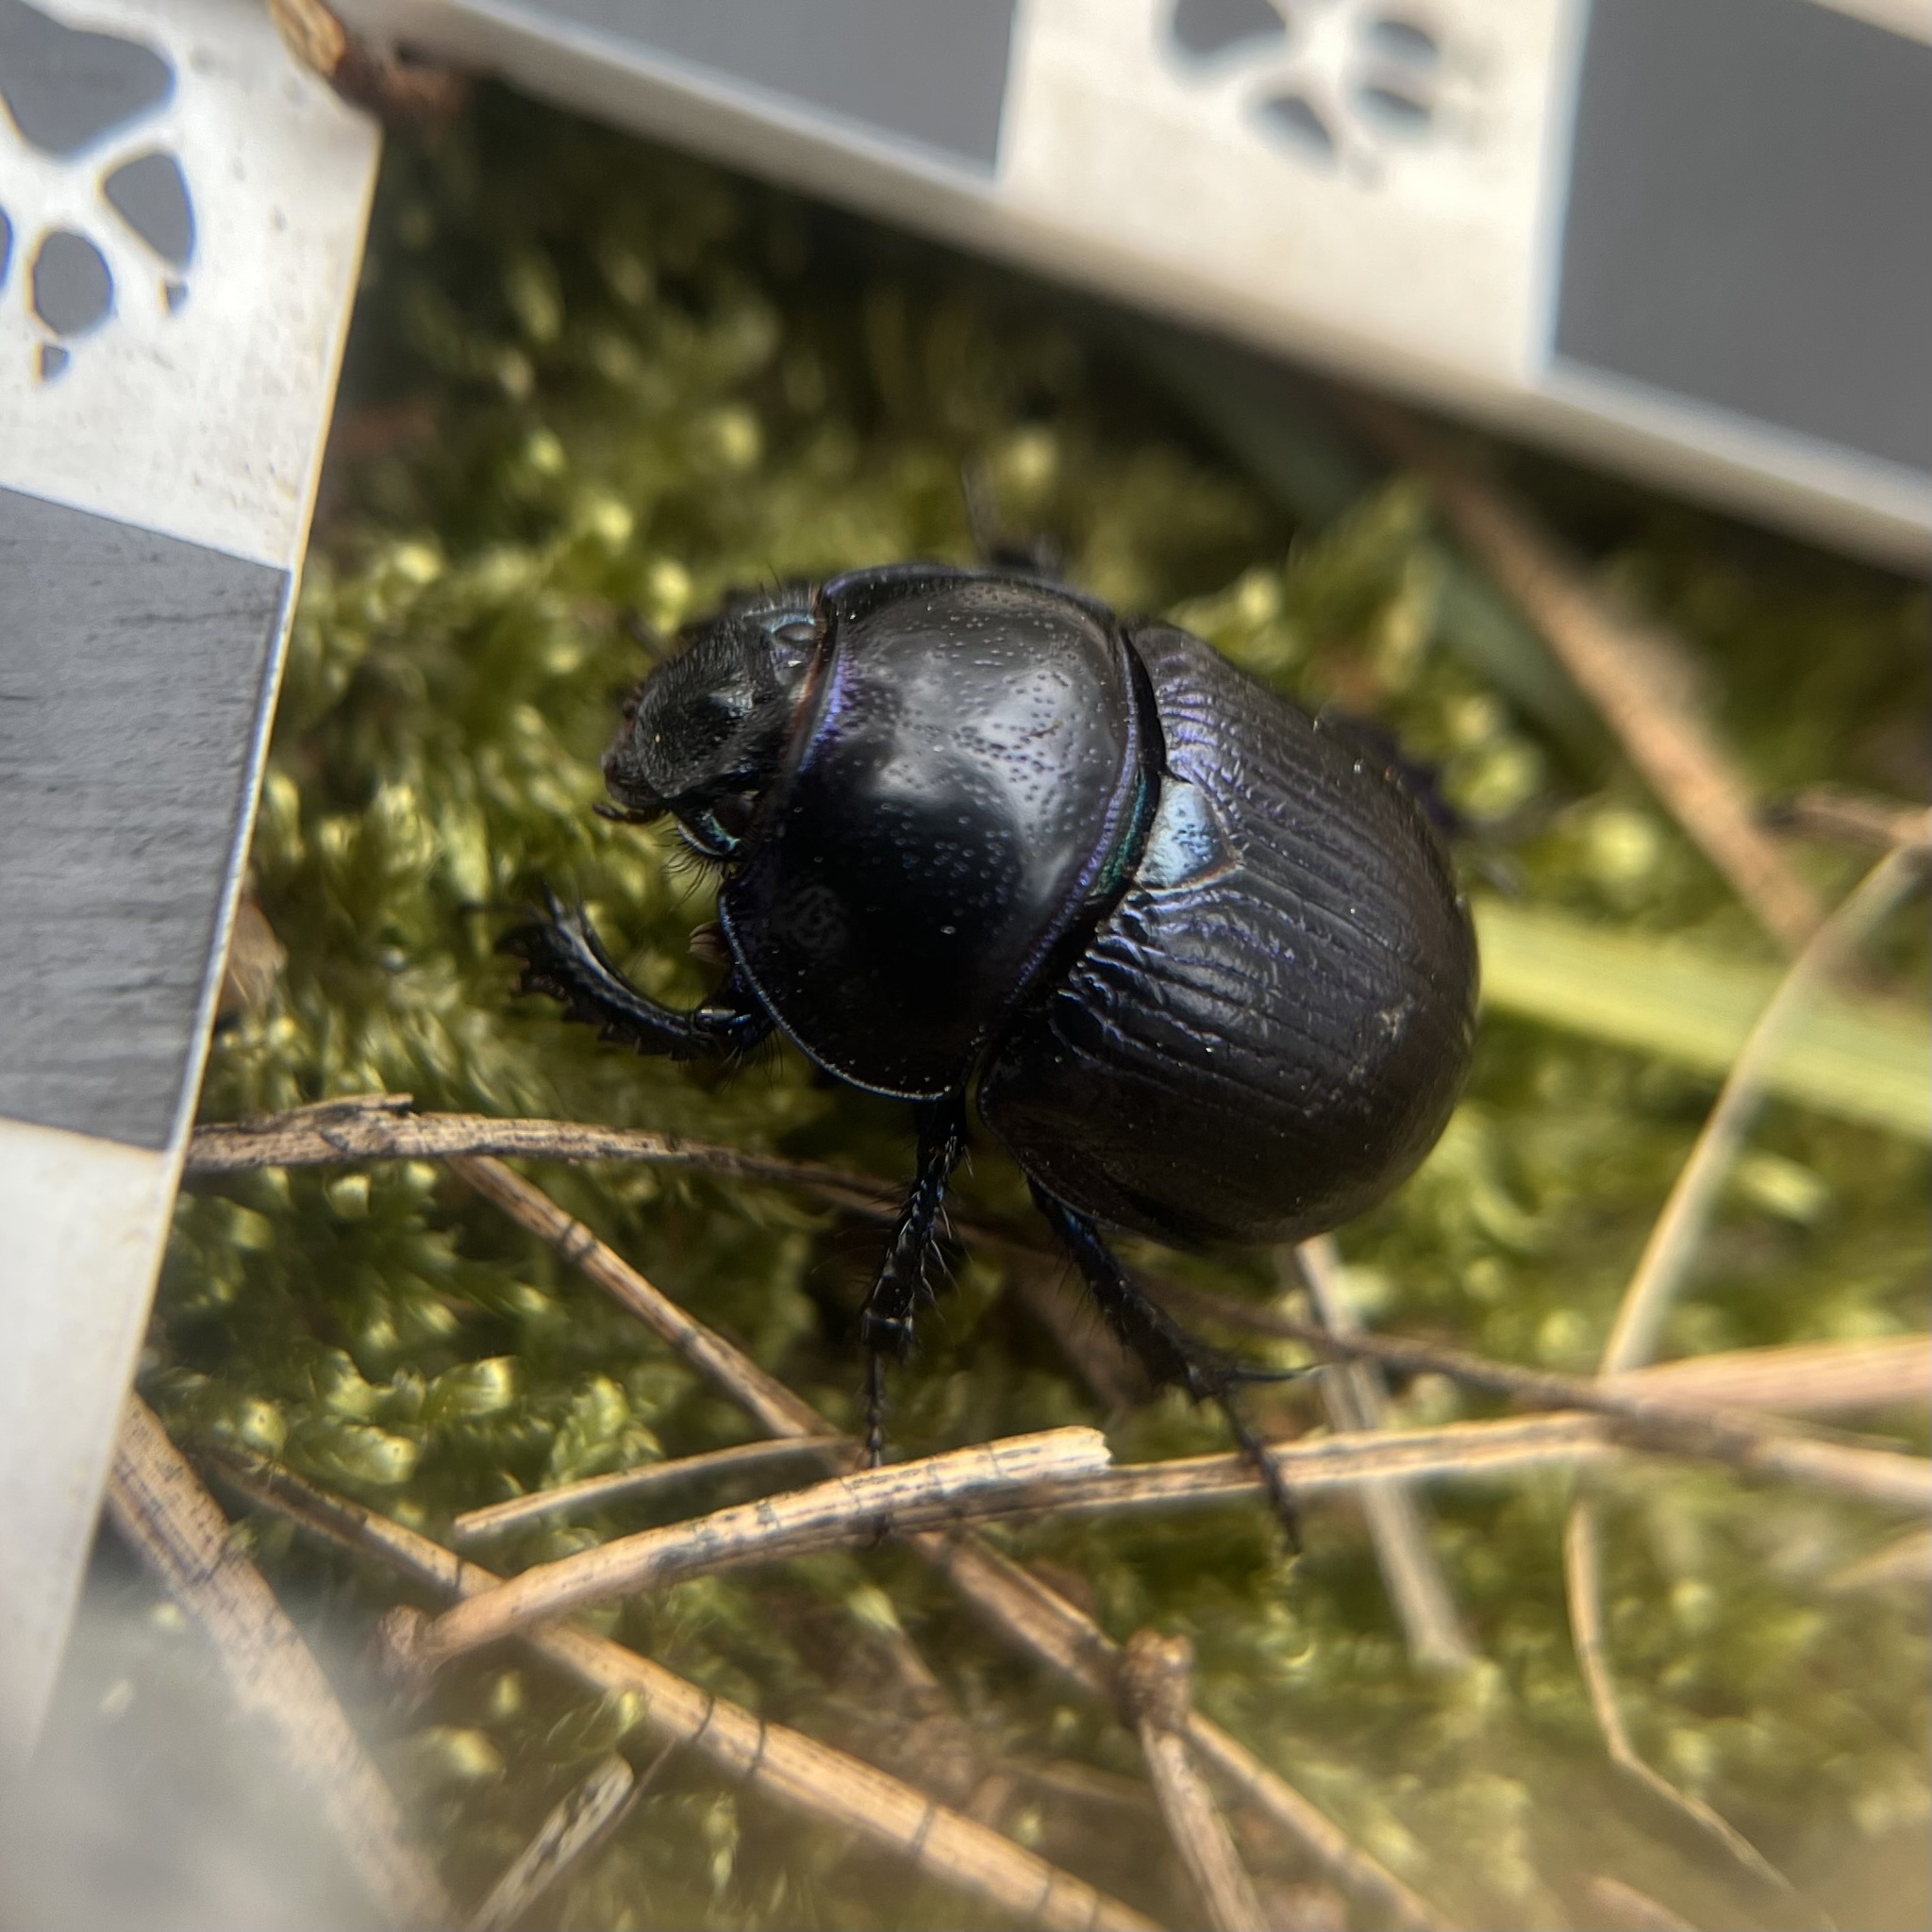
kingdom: Animalia
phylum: Arthropoda
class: Insecta
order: Coleoptera
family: Geotrupidae
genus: Anoplotrupes
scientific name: Anoplotrupes stercorosus
